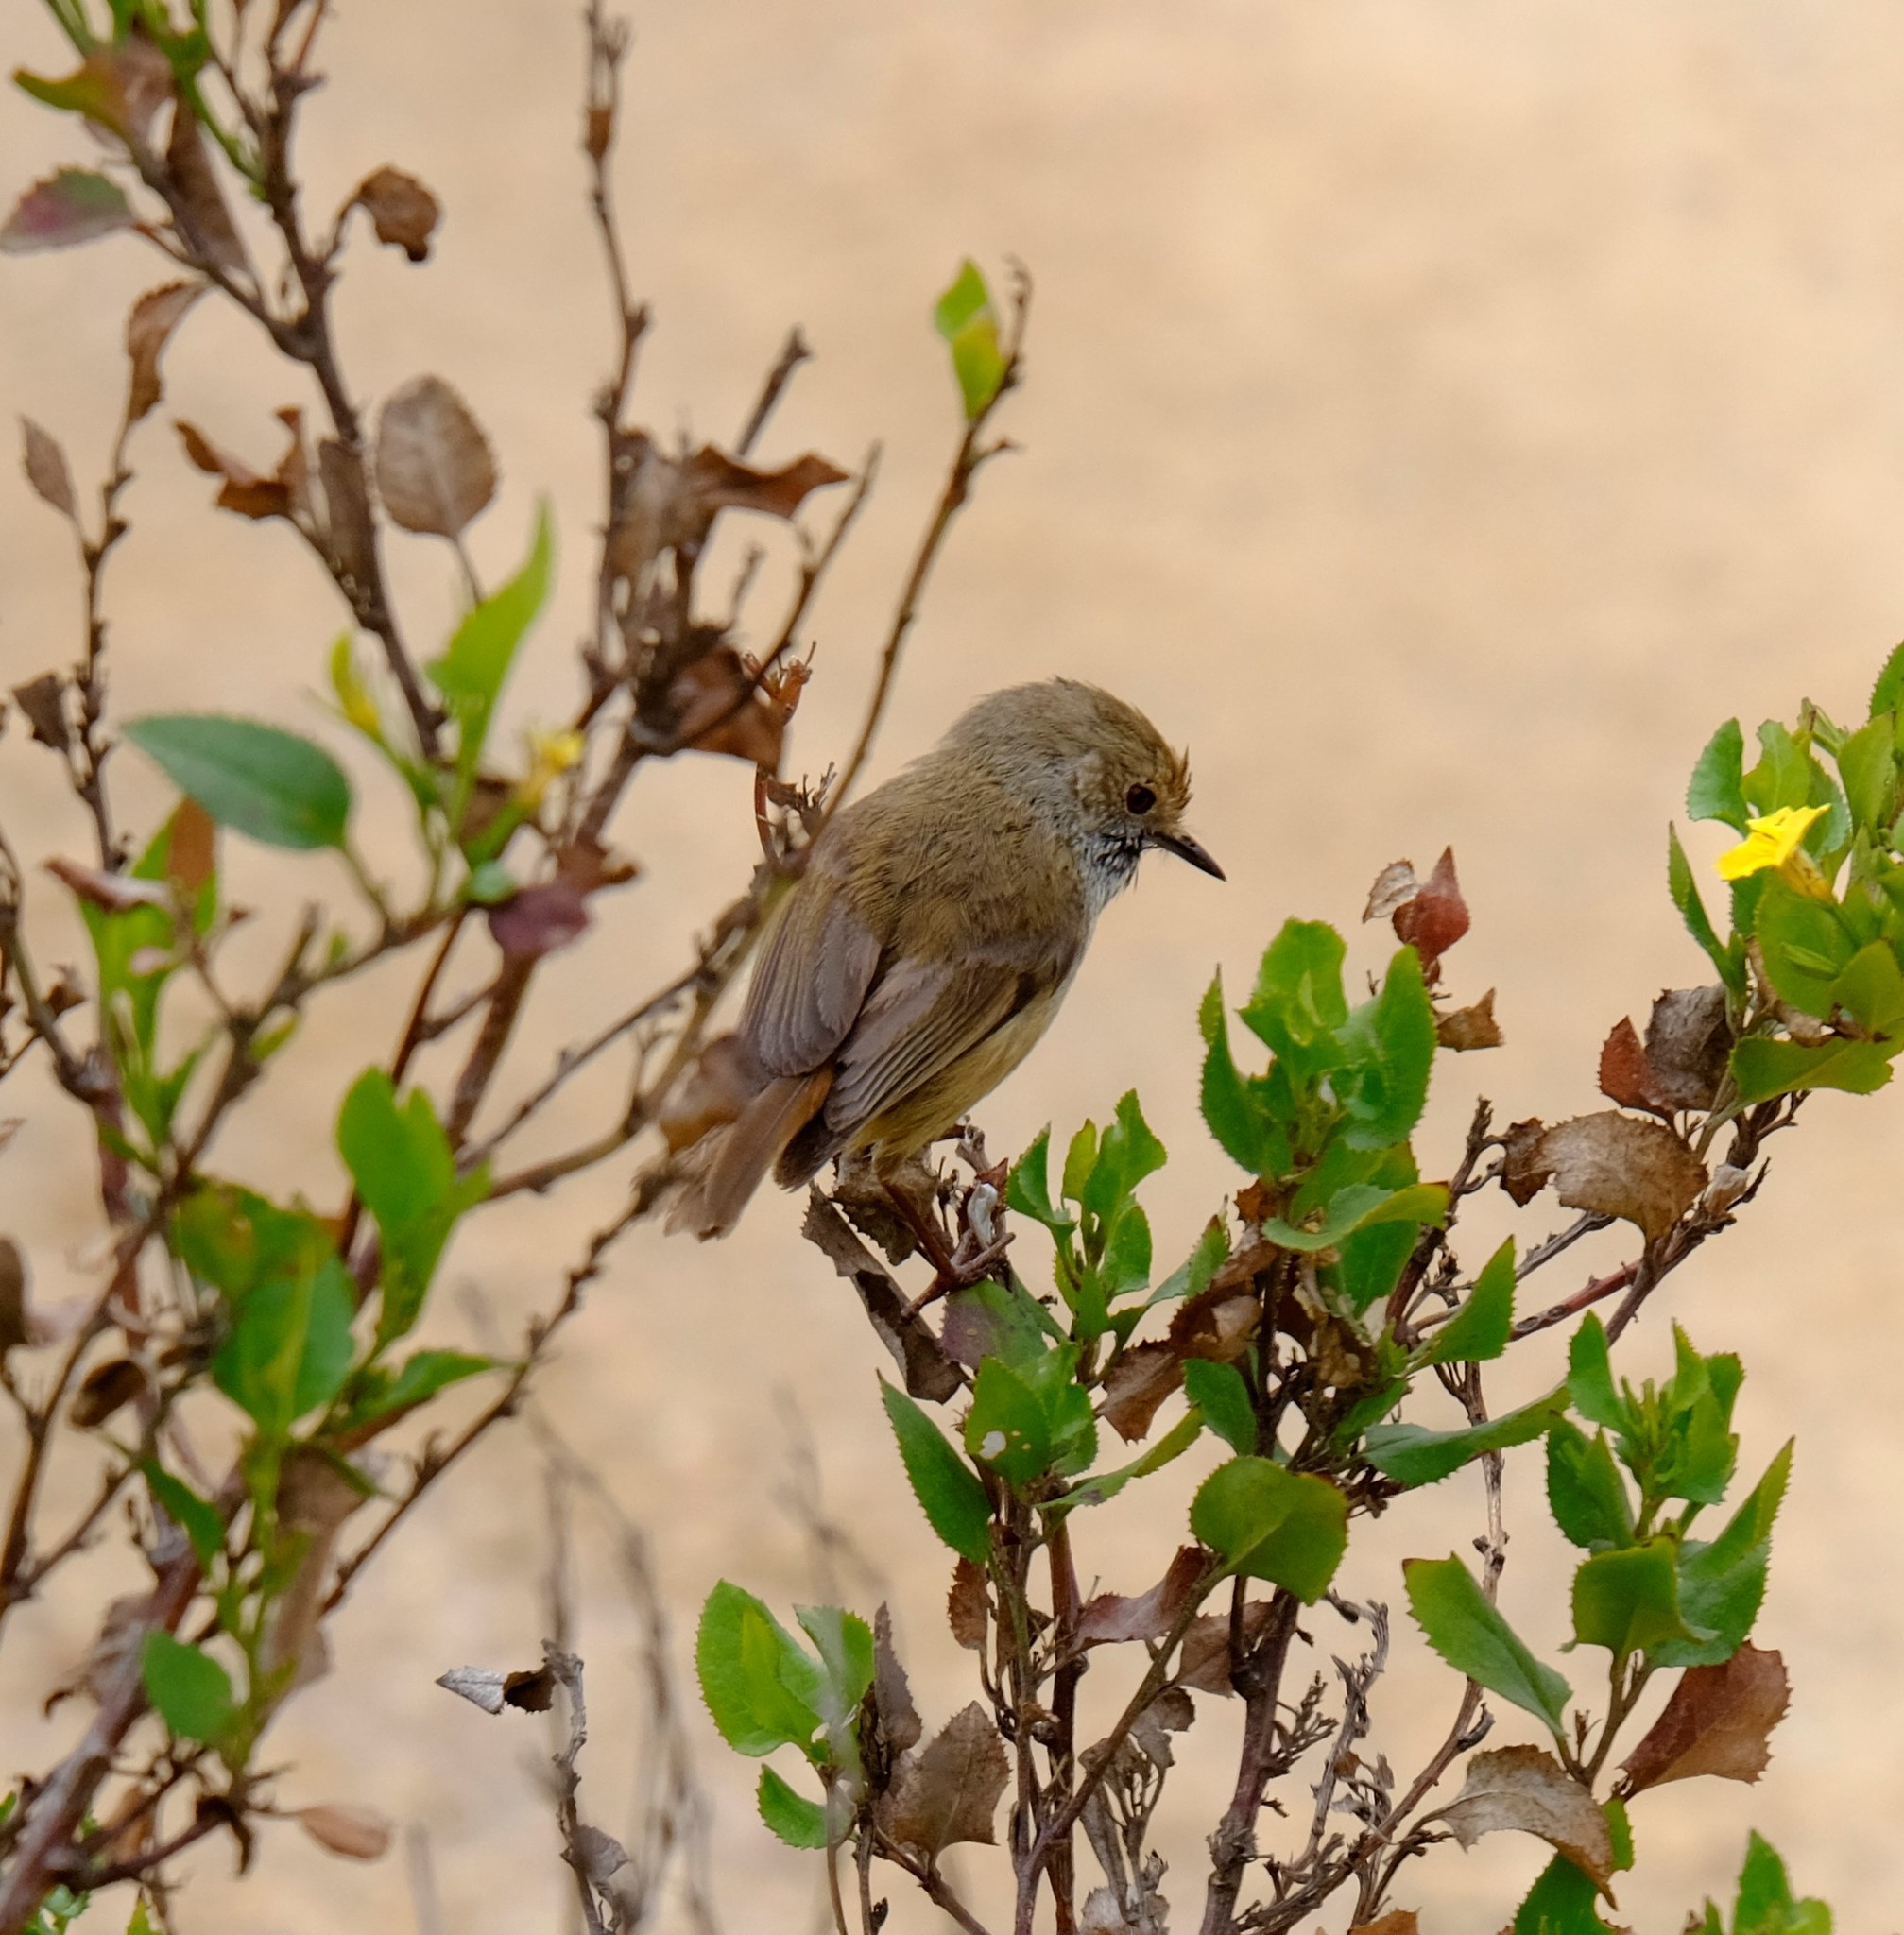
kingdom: Animalia
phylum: Chordata
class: Aves
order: Passeriformes
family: Acanthizidae
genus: Acanthiza
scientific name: Acanthiza pusilla
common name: Brown thornbill
